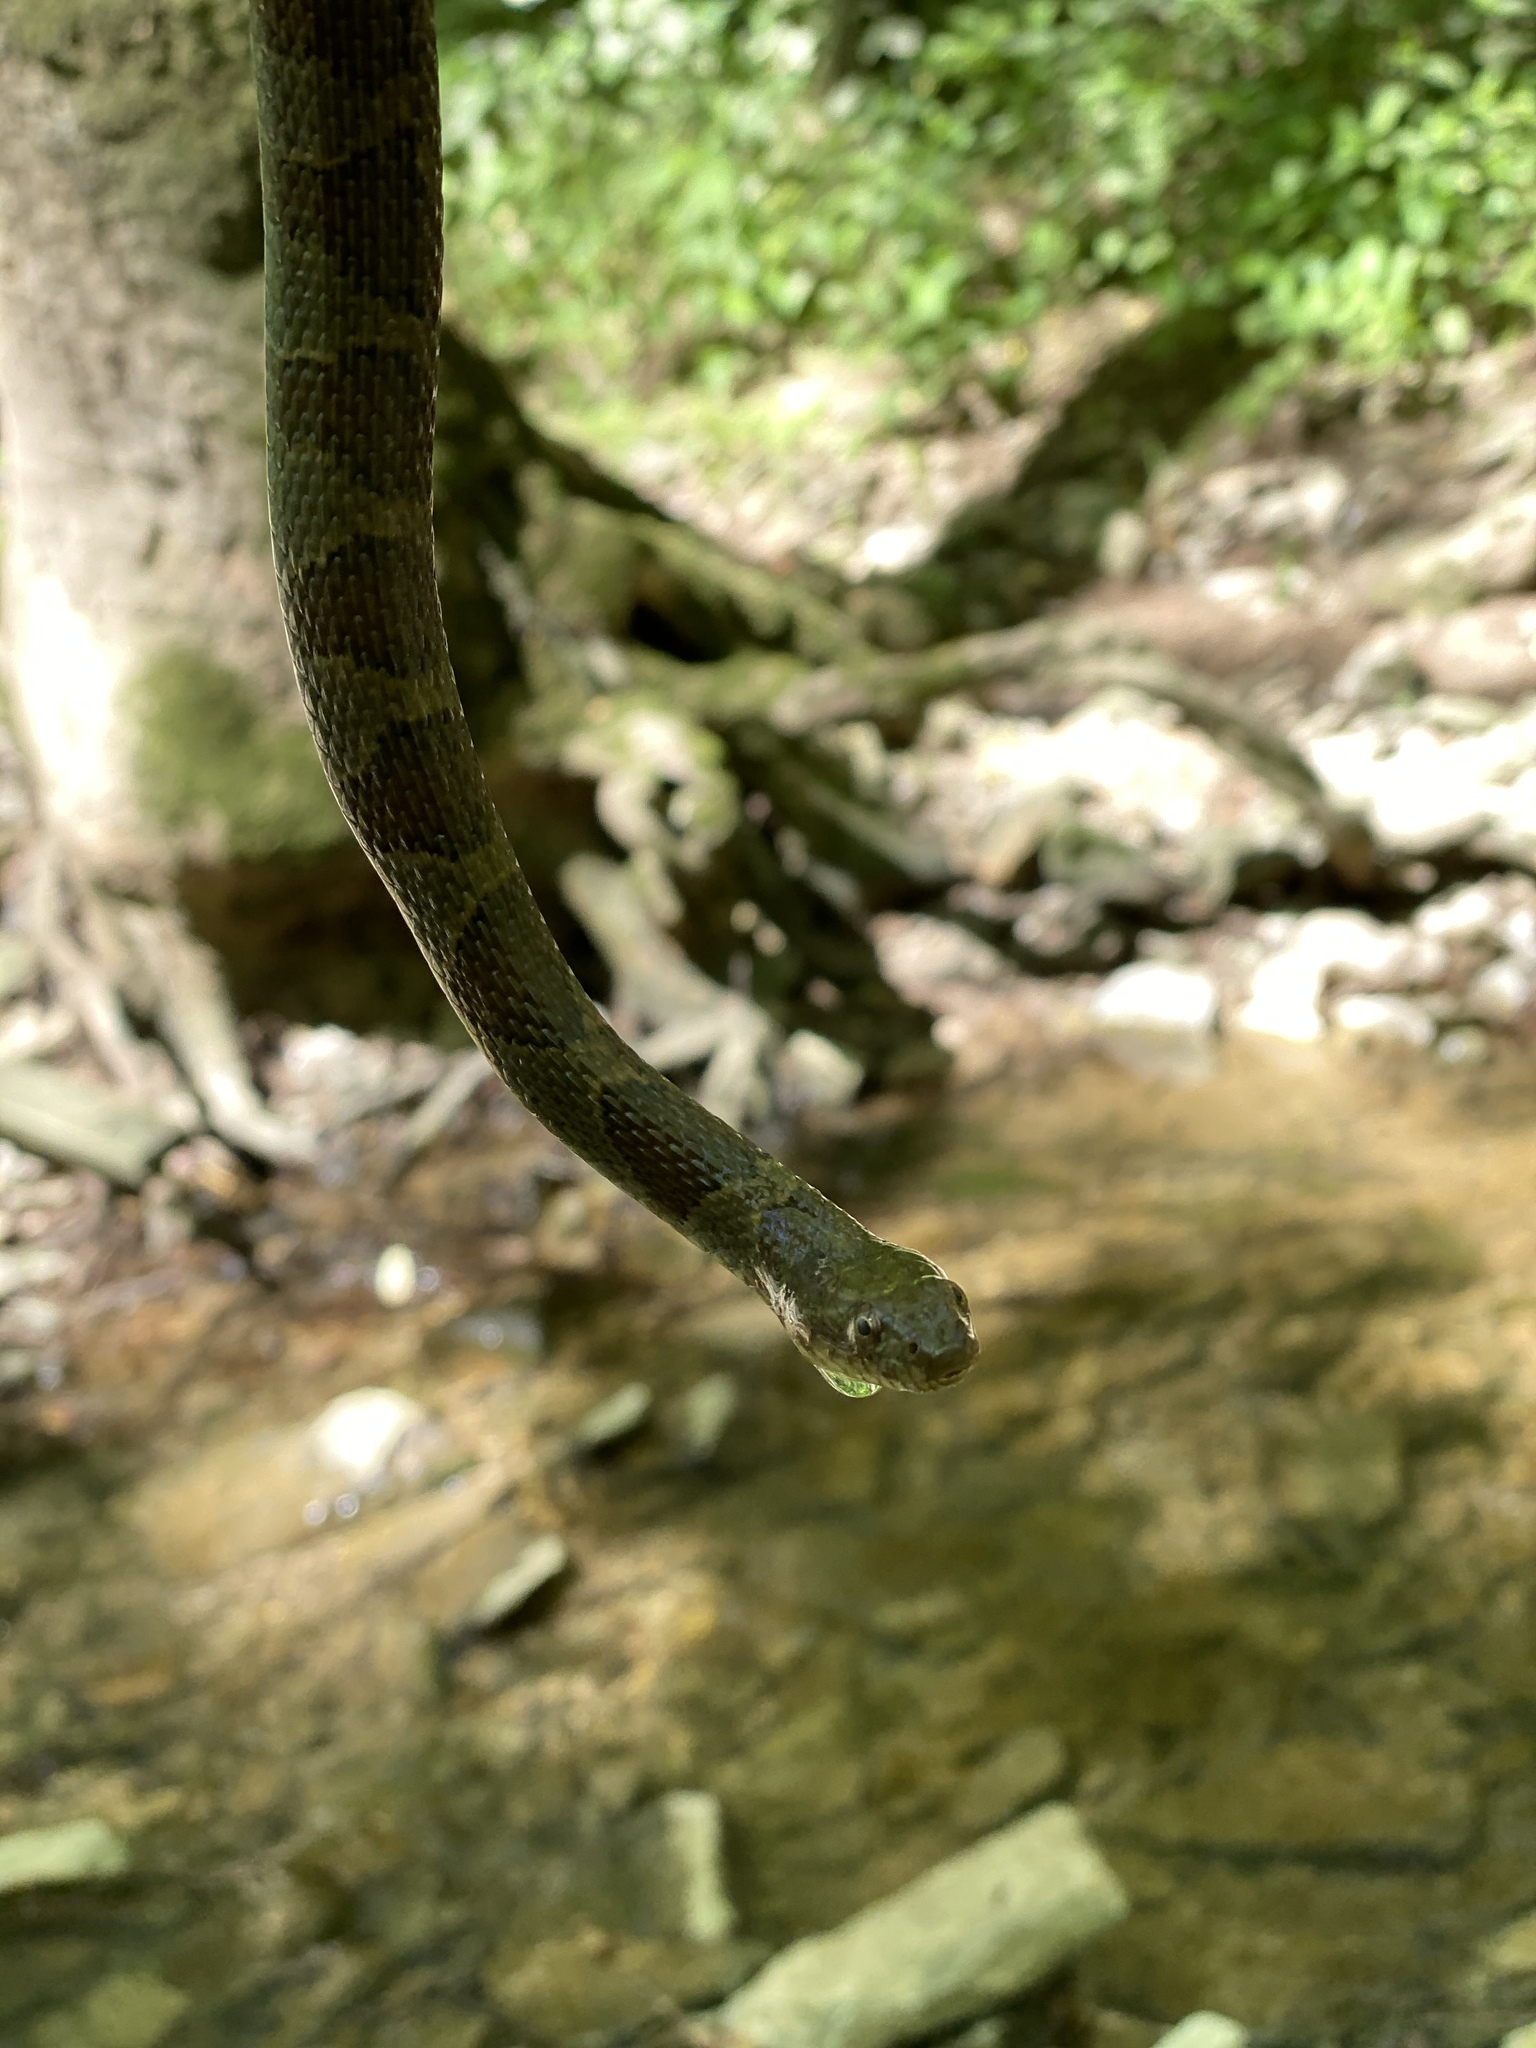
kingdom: Animalia
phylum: Chordata
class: Squamata
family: Colubridae
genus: Nerodia
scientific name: Nerodia sipedon
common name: Northern water snake
